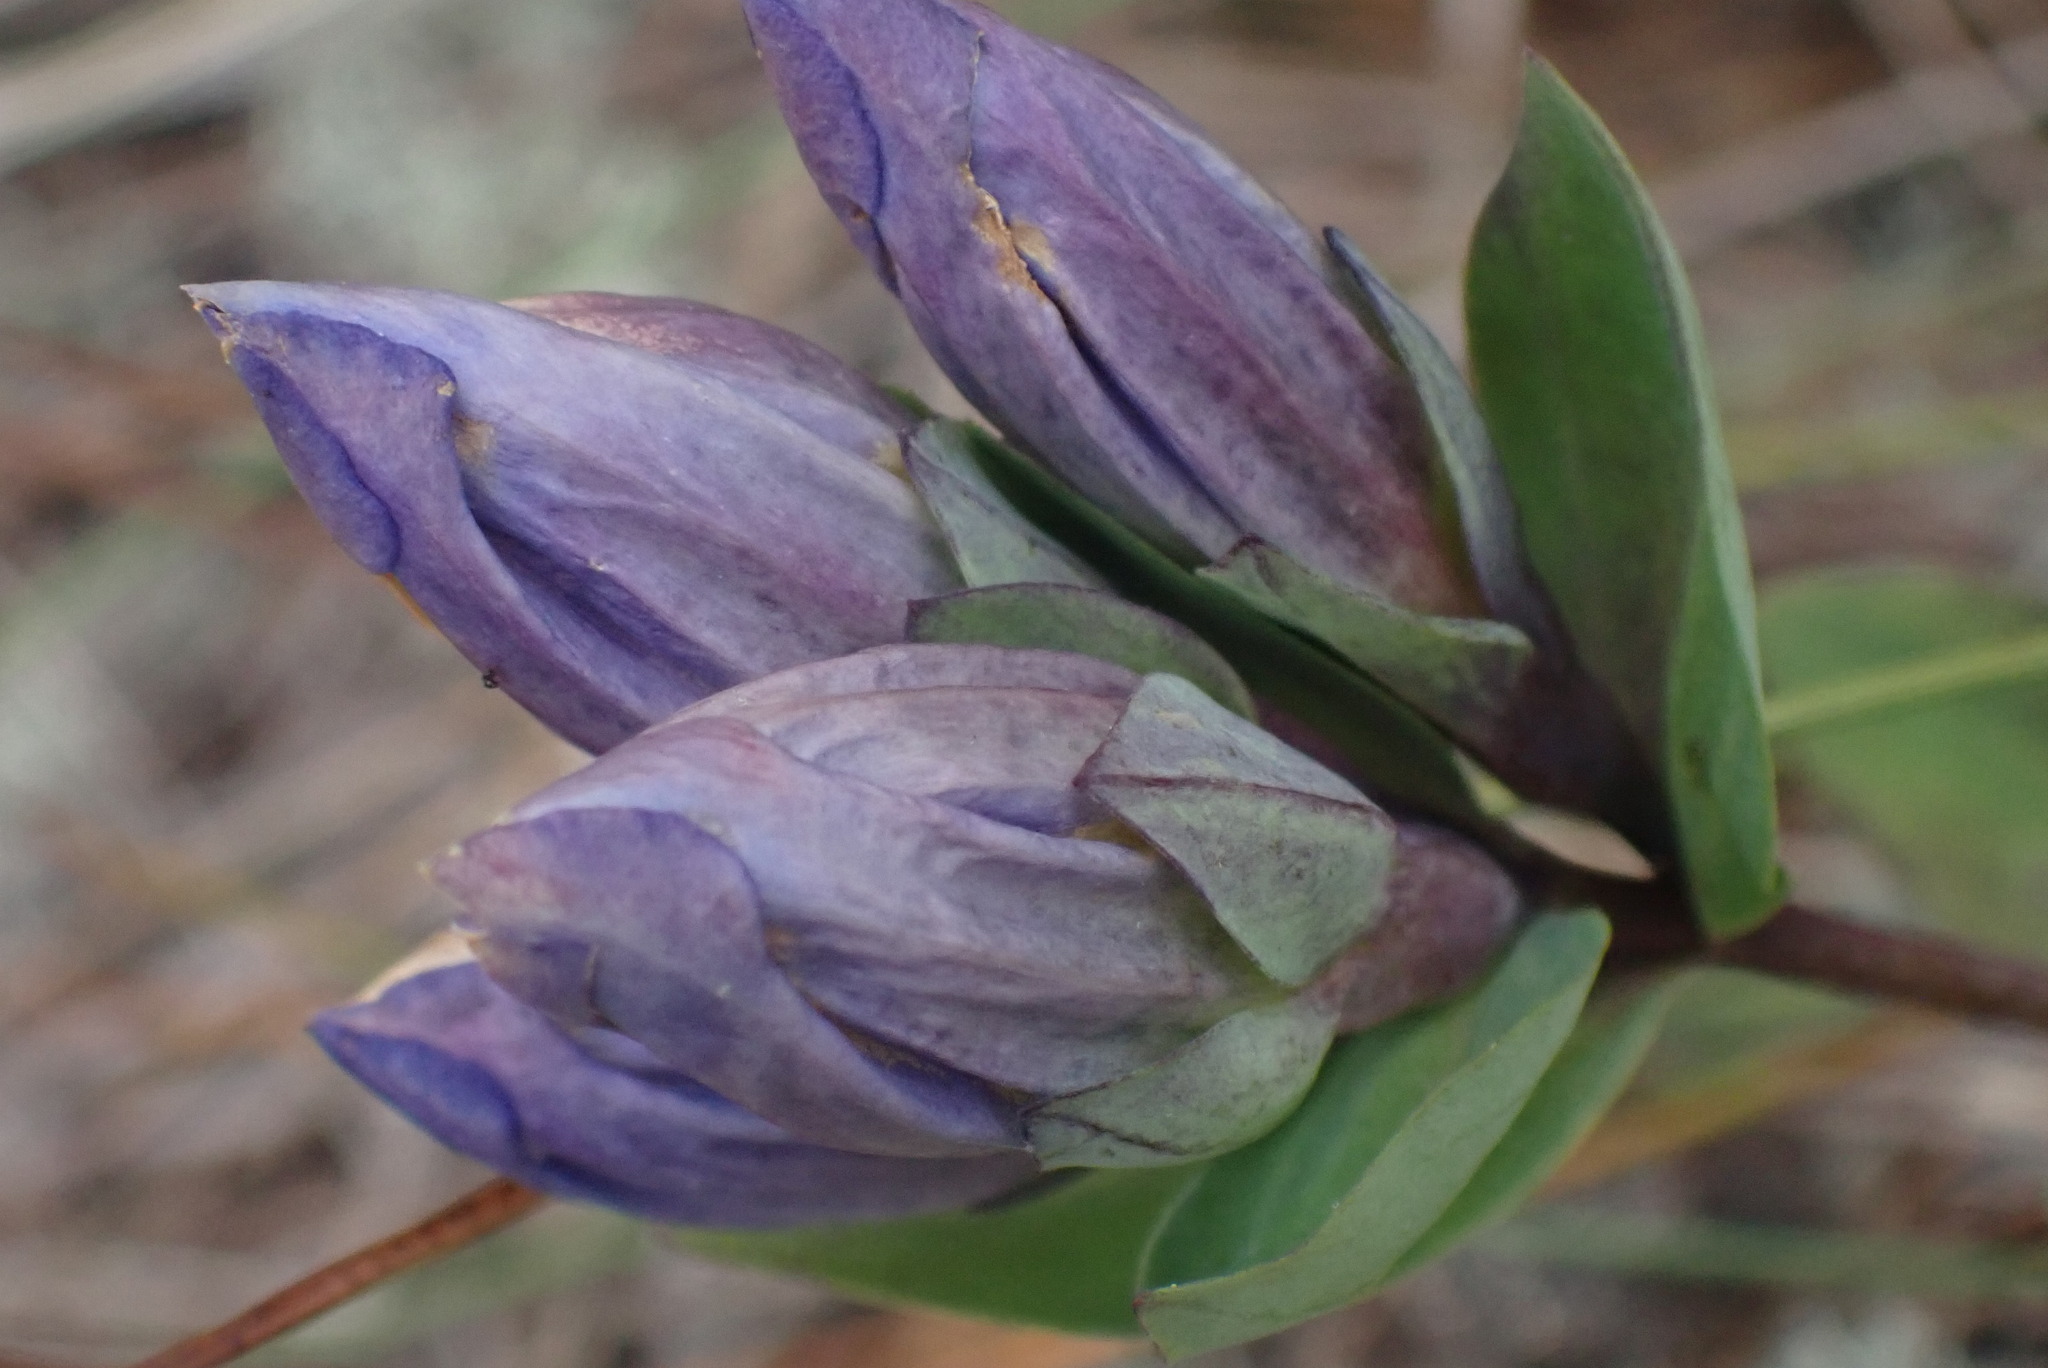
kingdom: Plantae
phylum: Tracheophyta
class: Magnoliopsida
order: Gentianales
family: Gentianaceae
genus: Gentiana
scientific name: Gentiana sceptrum
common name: Pacific gentian
